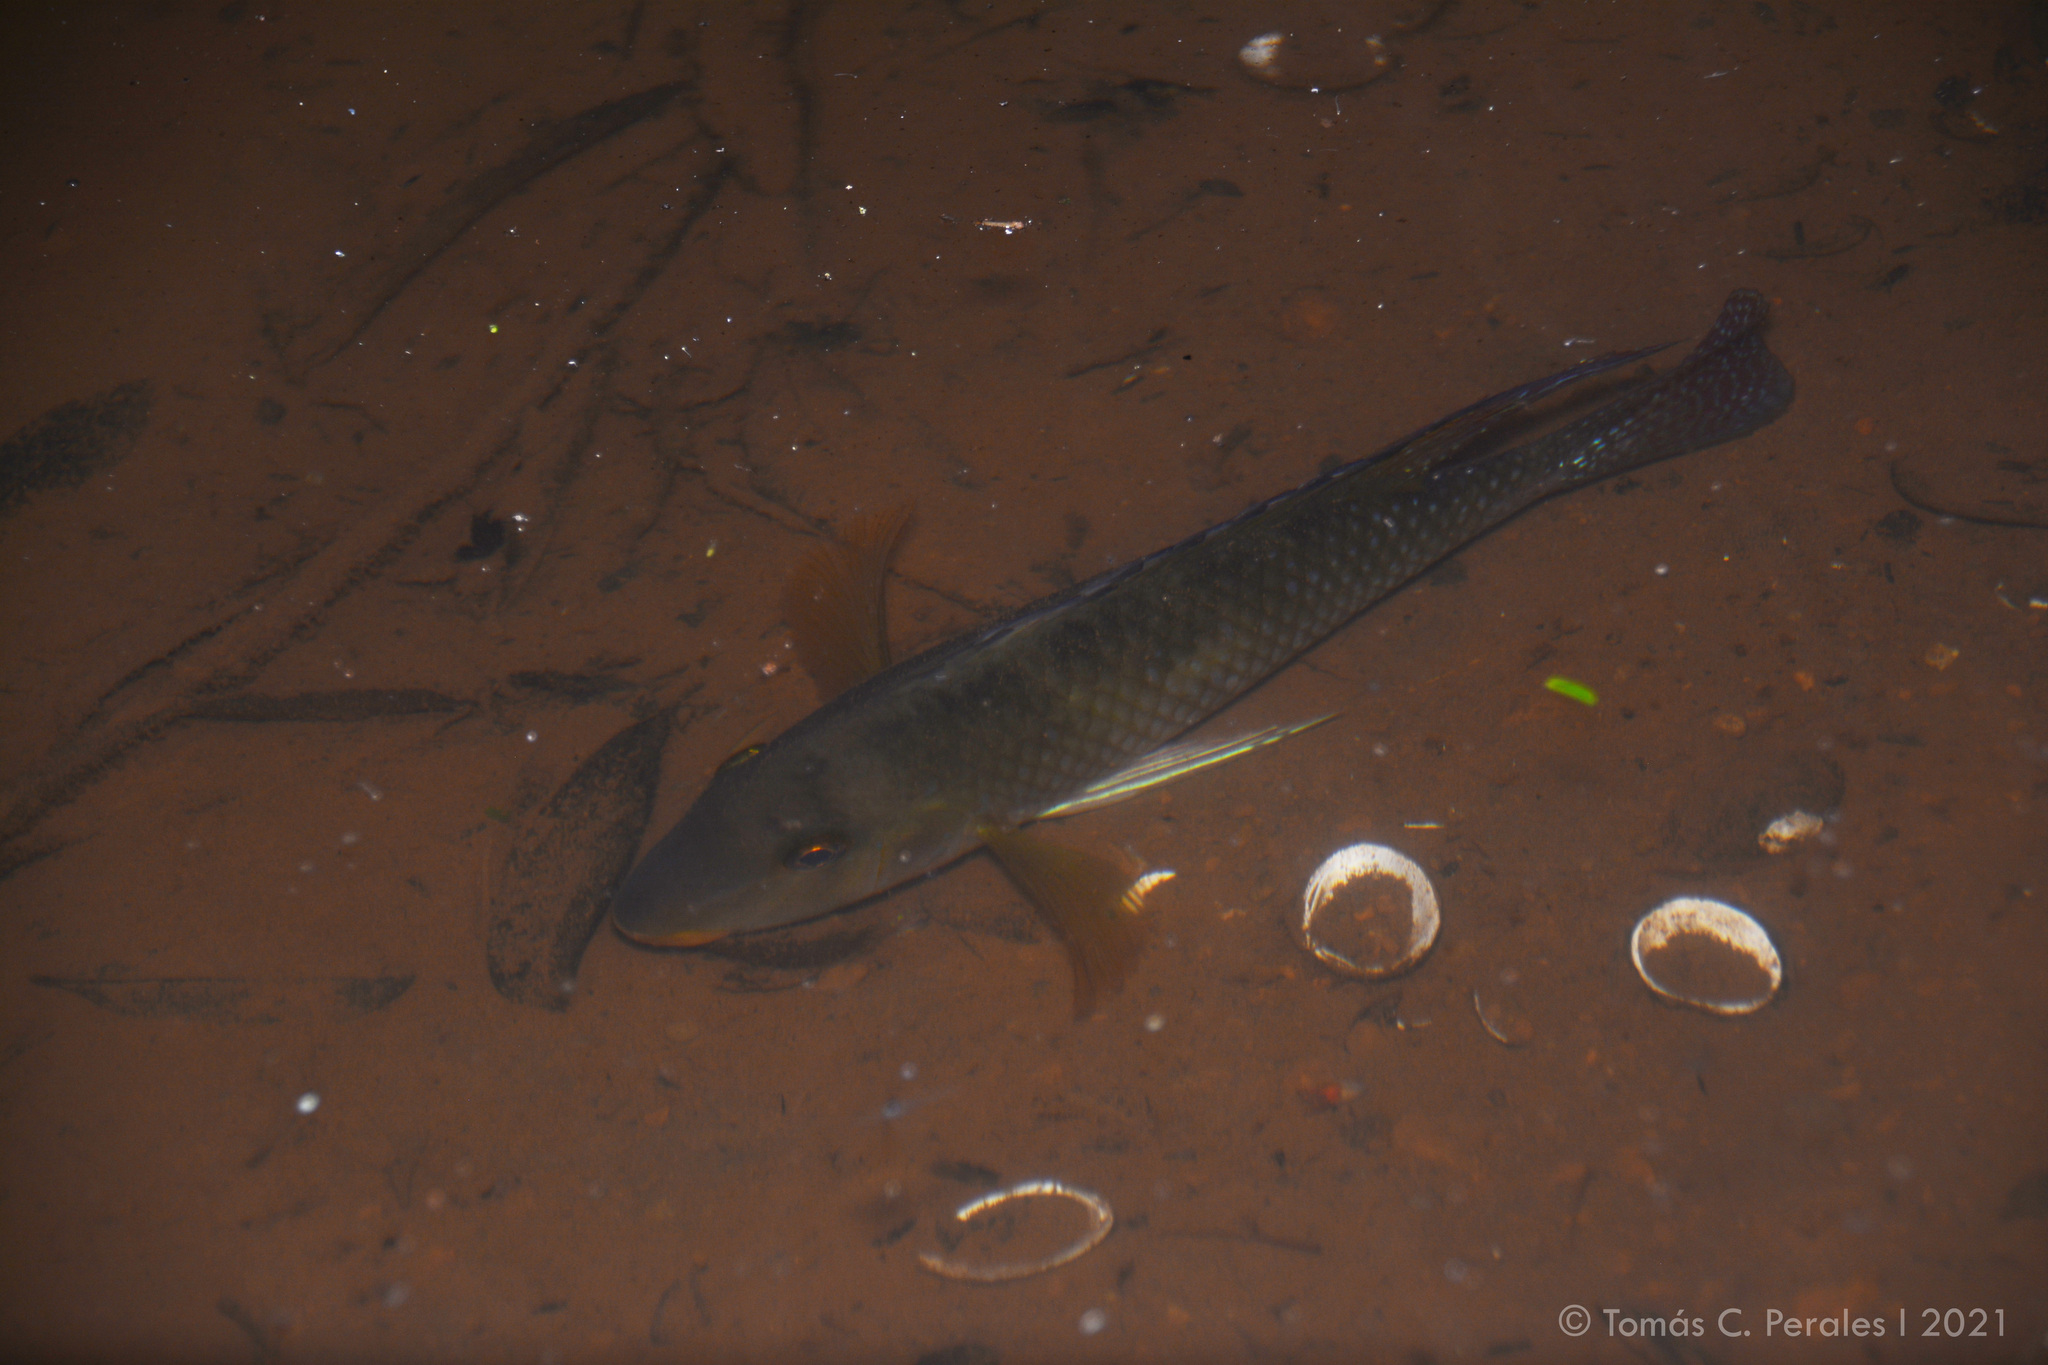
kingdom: Animalia
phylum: Chordata
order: Perciformes
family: Cichlidae
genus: Geophagus
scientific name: Geophagus brasiliensis
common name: Braziliensis
